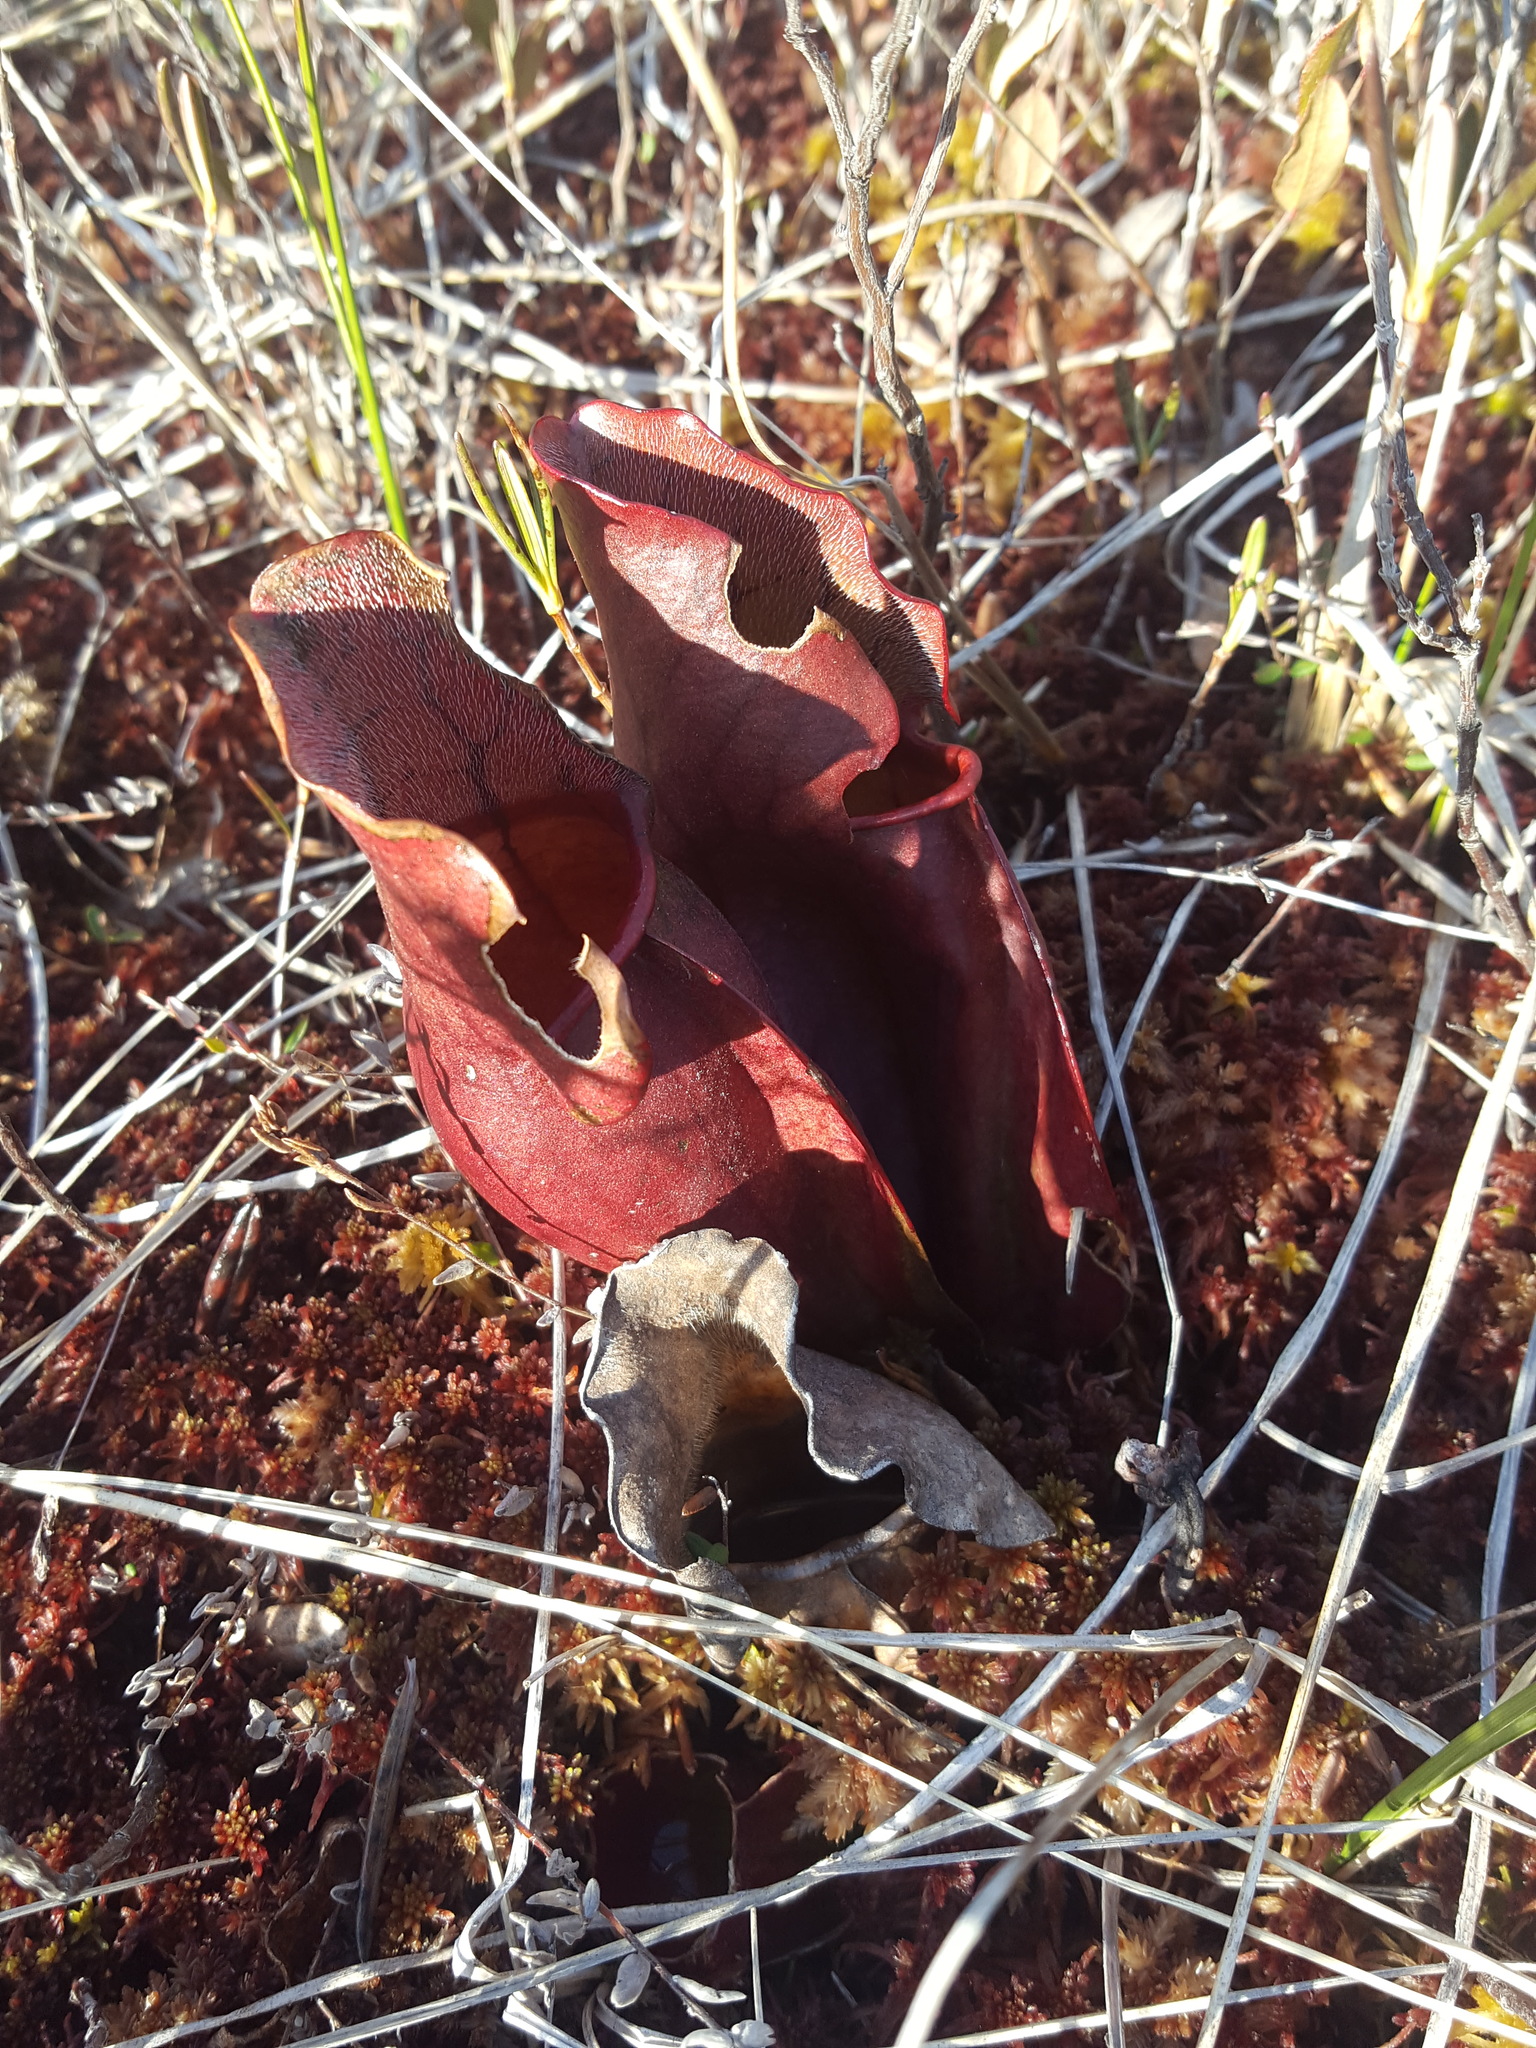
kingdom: Plantae
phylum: Tracheophyta
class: Magnoliopsida
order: Ericales
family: Sarraceniaceae
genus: Sarracenia
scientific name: Sarracenia purpurea
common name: Pitcherplant
